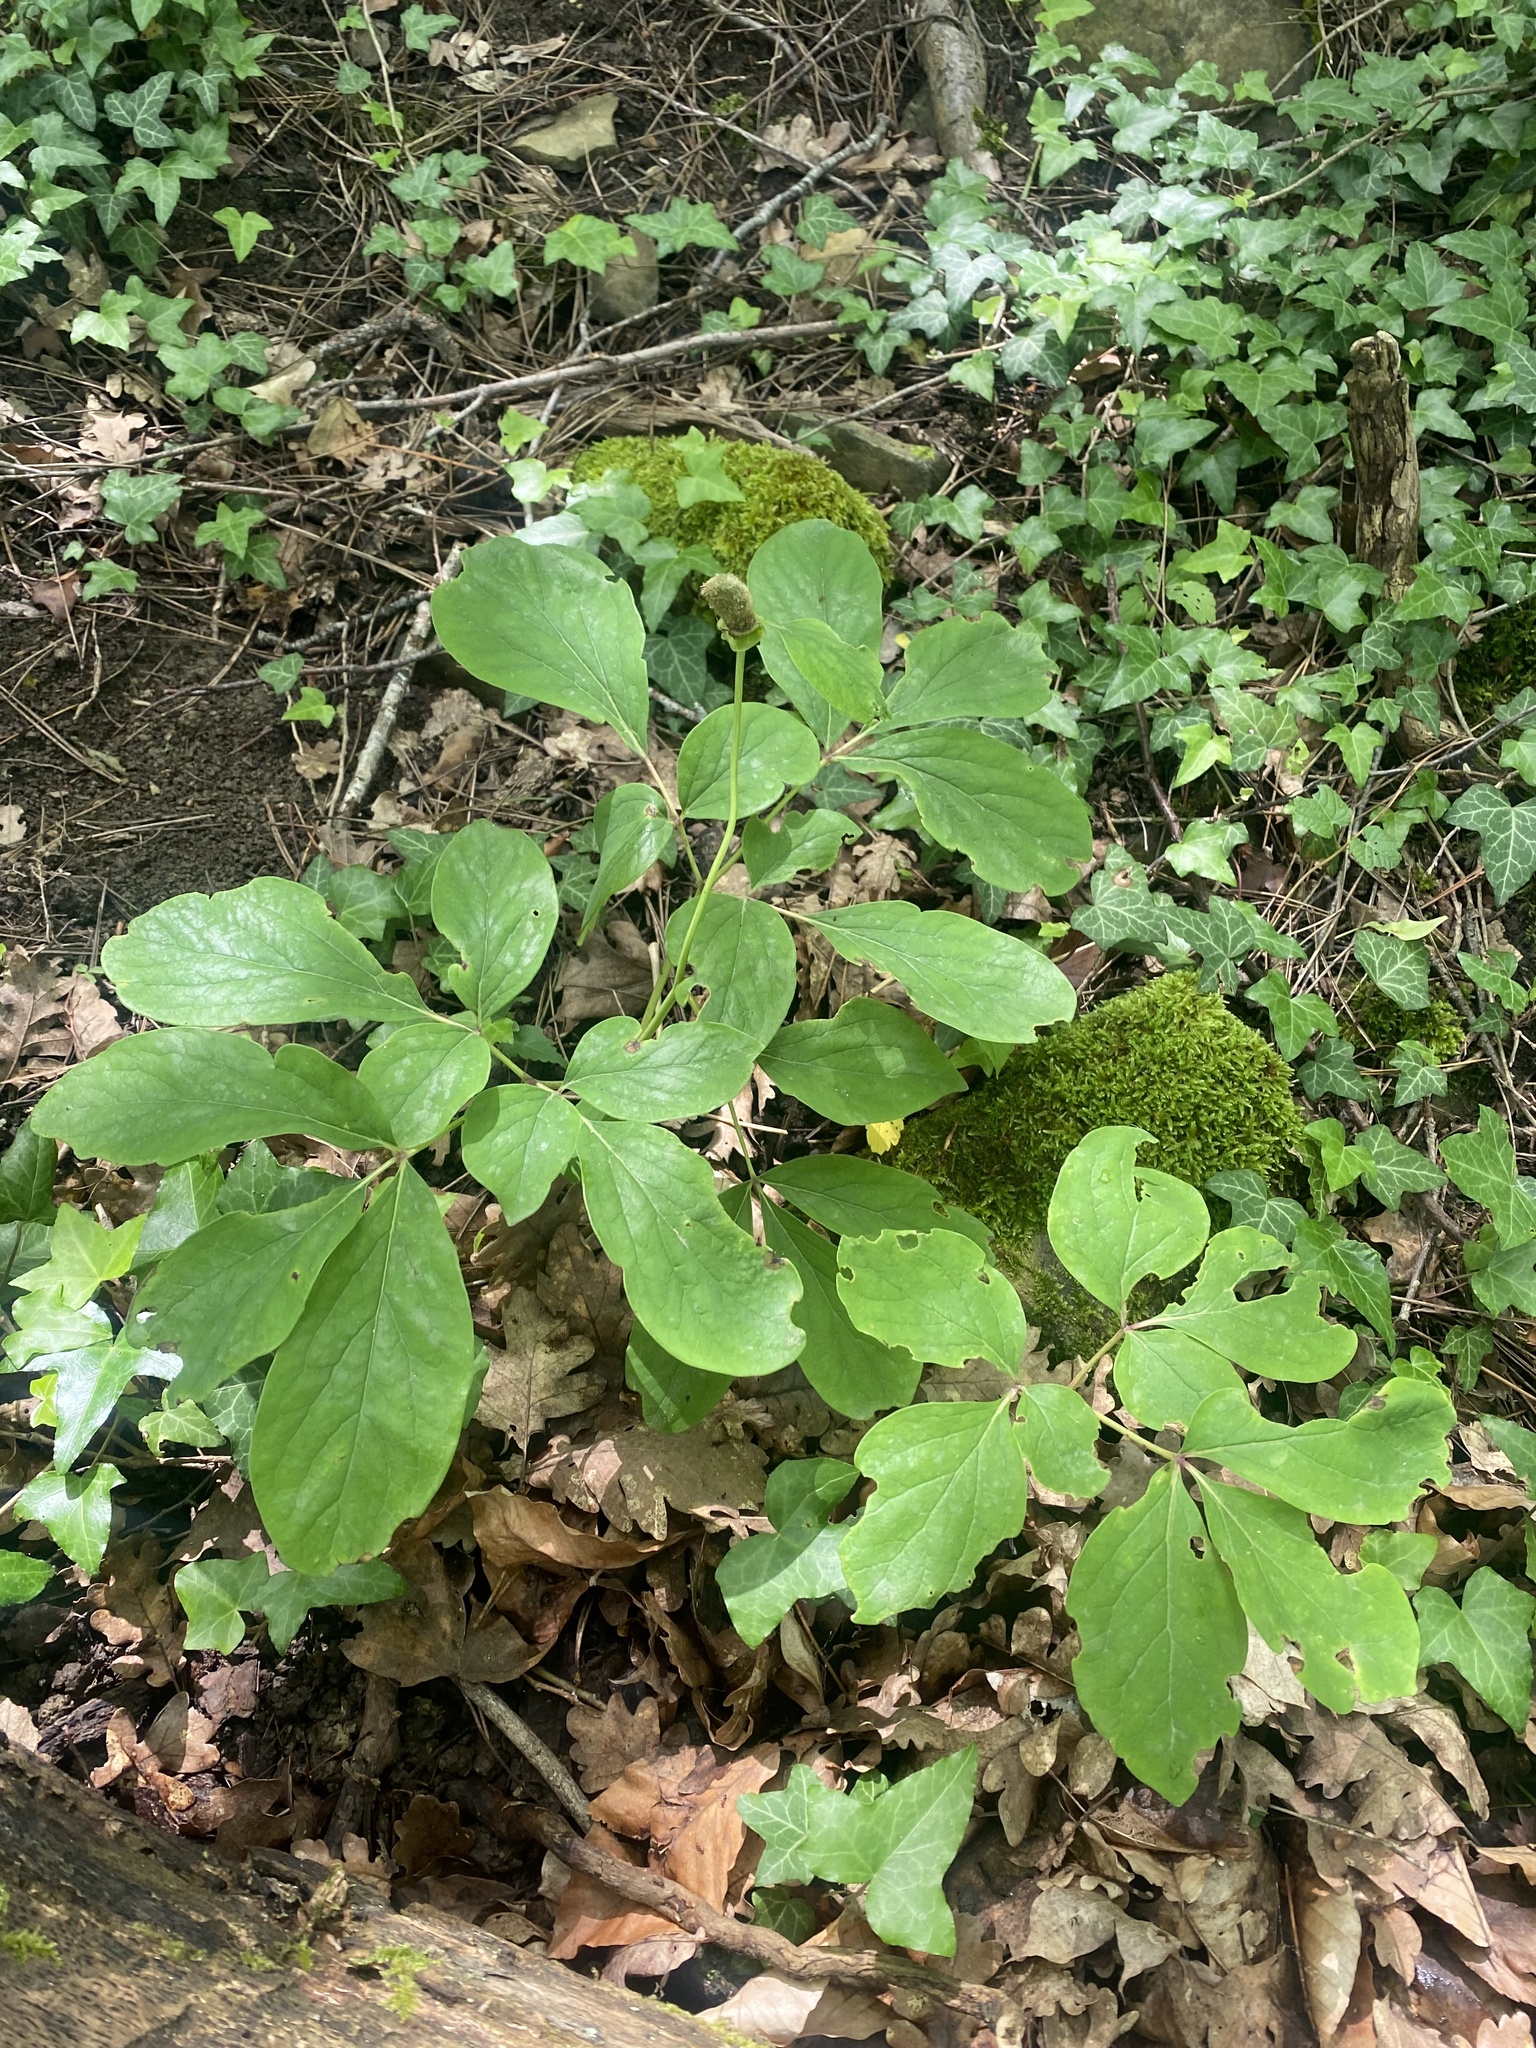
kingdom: Plantae
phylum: Tracheophyta
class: Magnoliopsida
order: Saxifragales
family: Paeoniaceae
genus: Paeonia
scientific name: Paeonia caucasica
